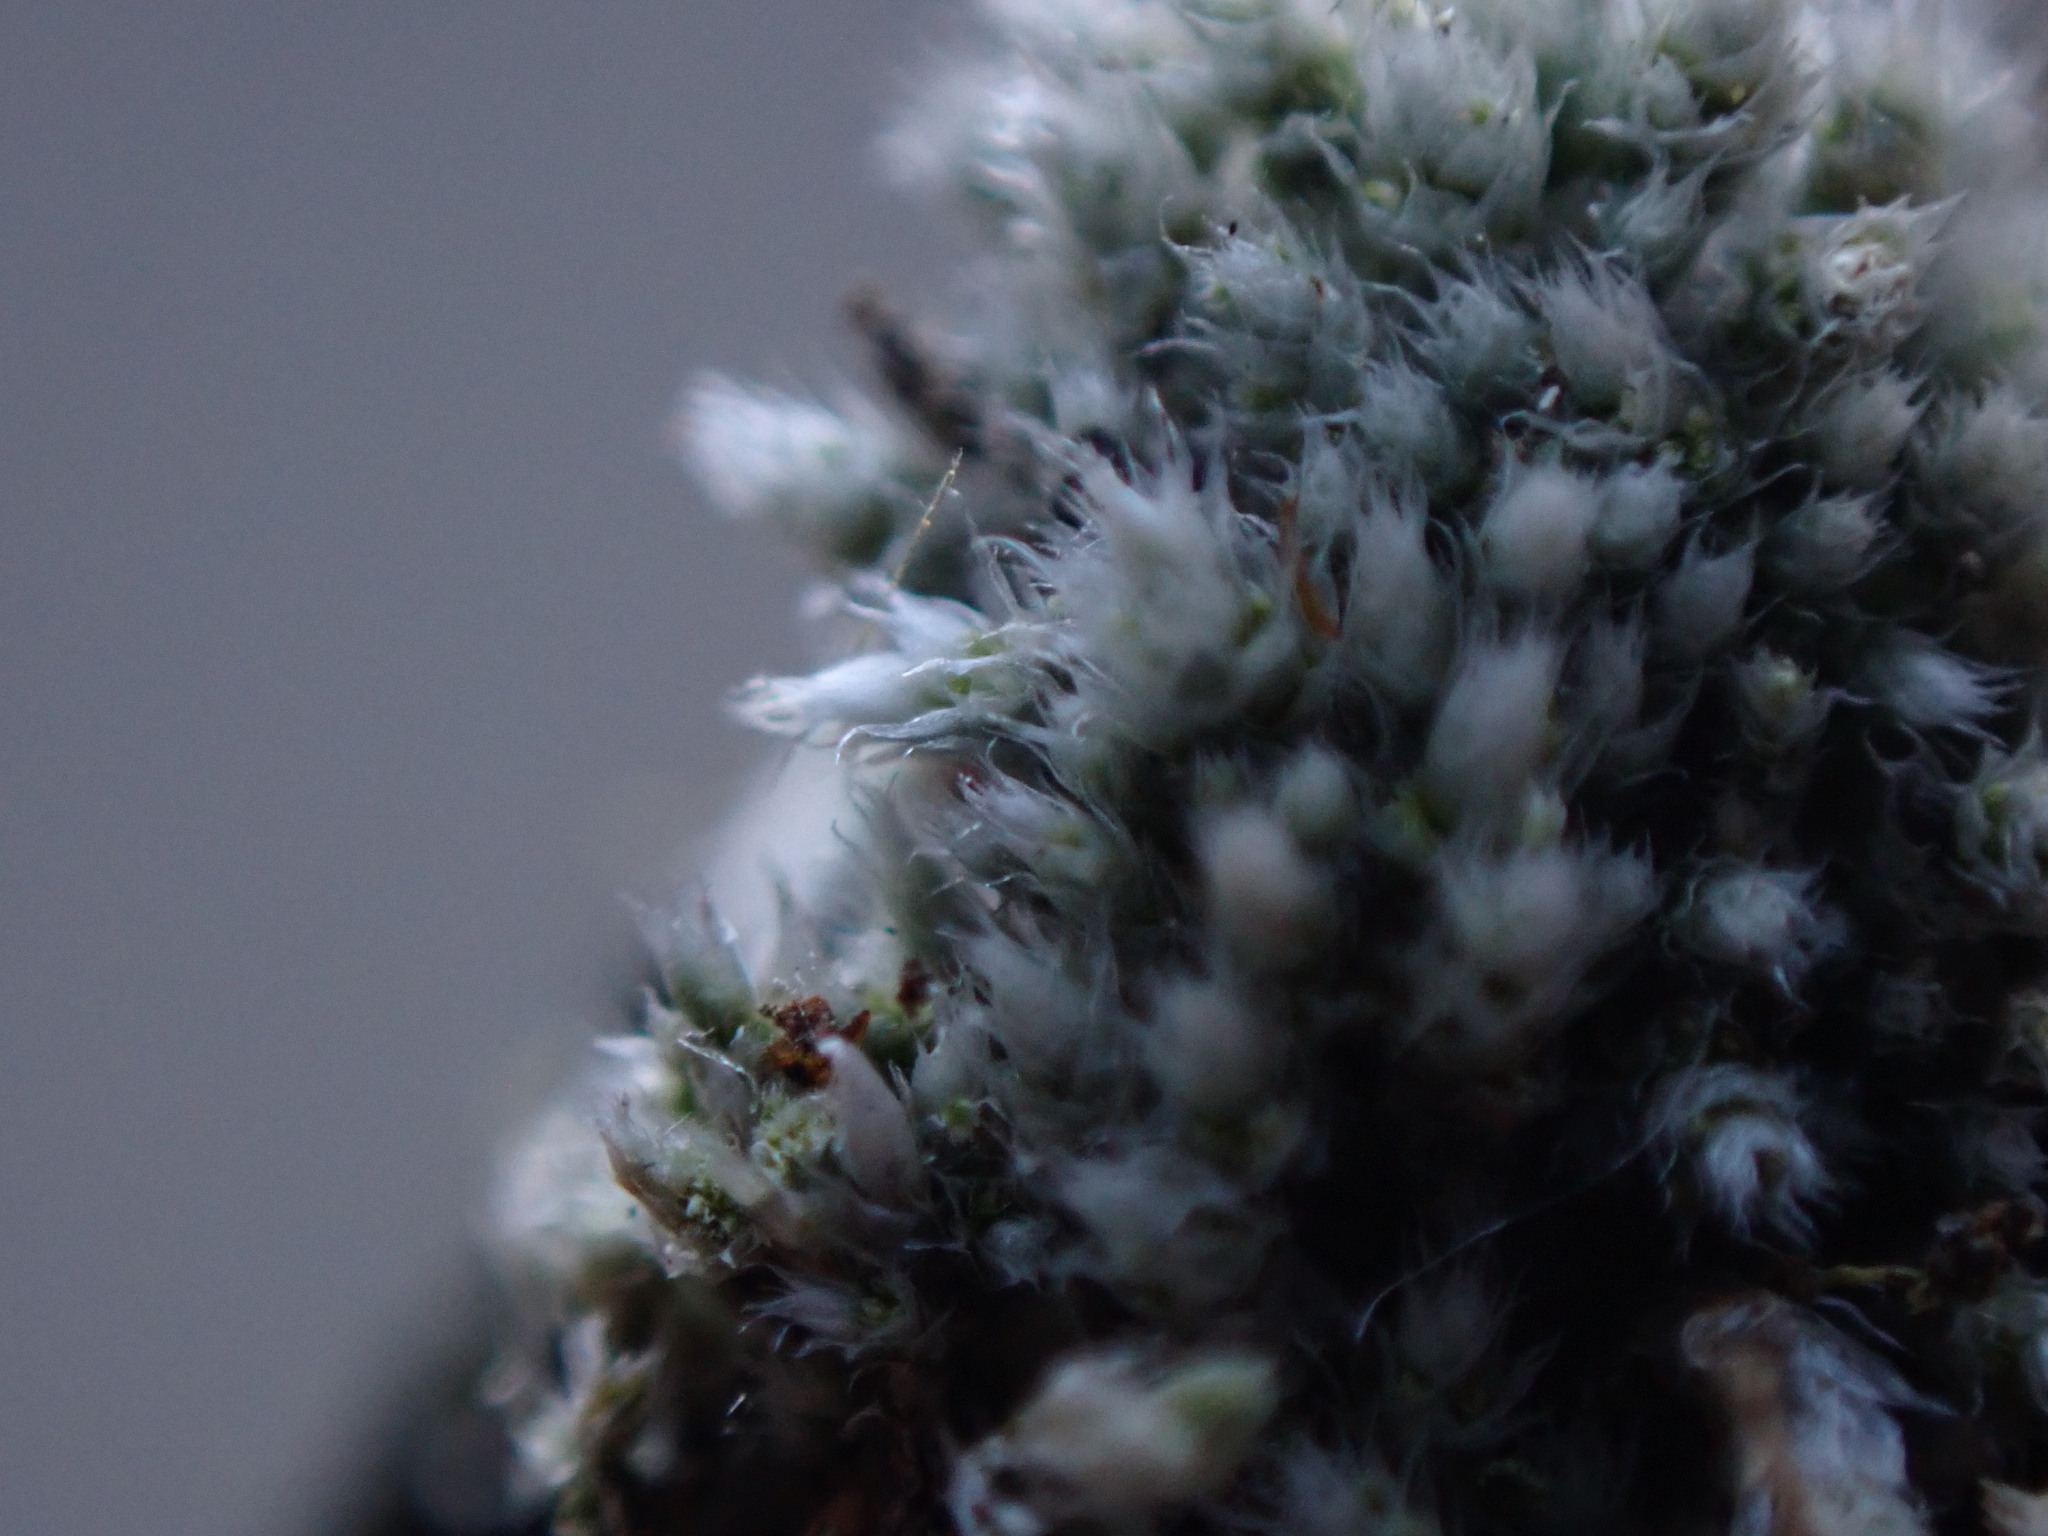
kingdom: Plantae
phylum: Bryophyta
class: Bryopsida
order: Bryales
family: Bryaceae
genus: Bryum
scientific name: Bryum argenteum
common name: Silver-moss
